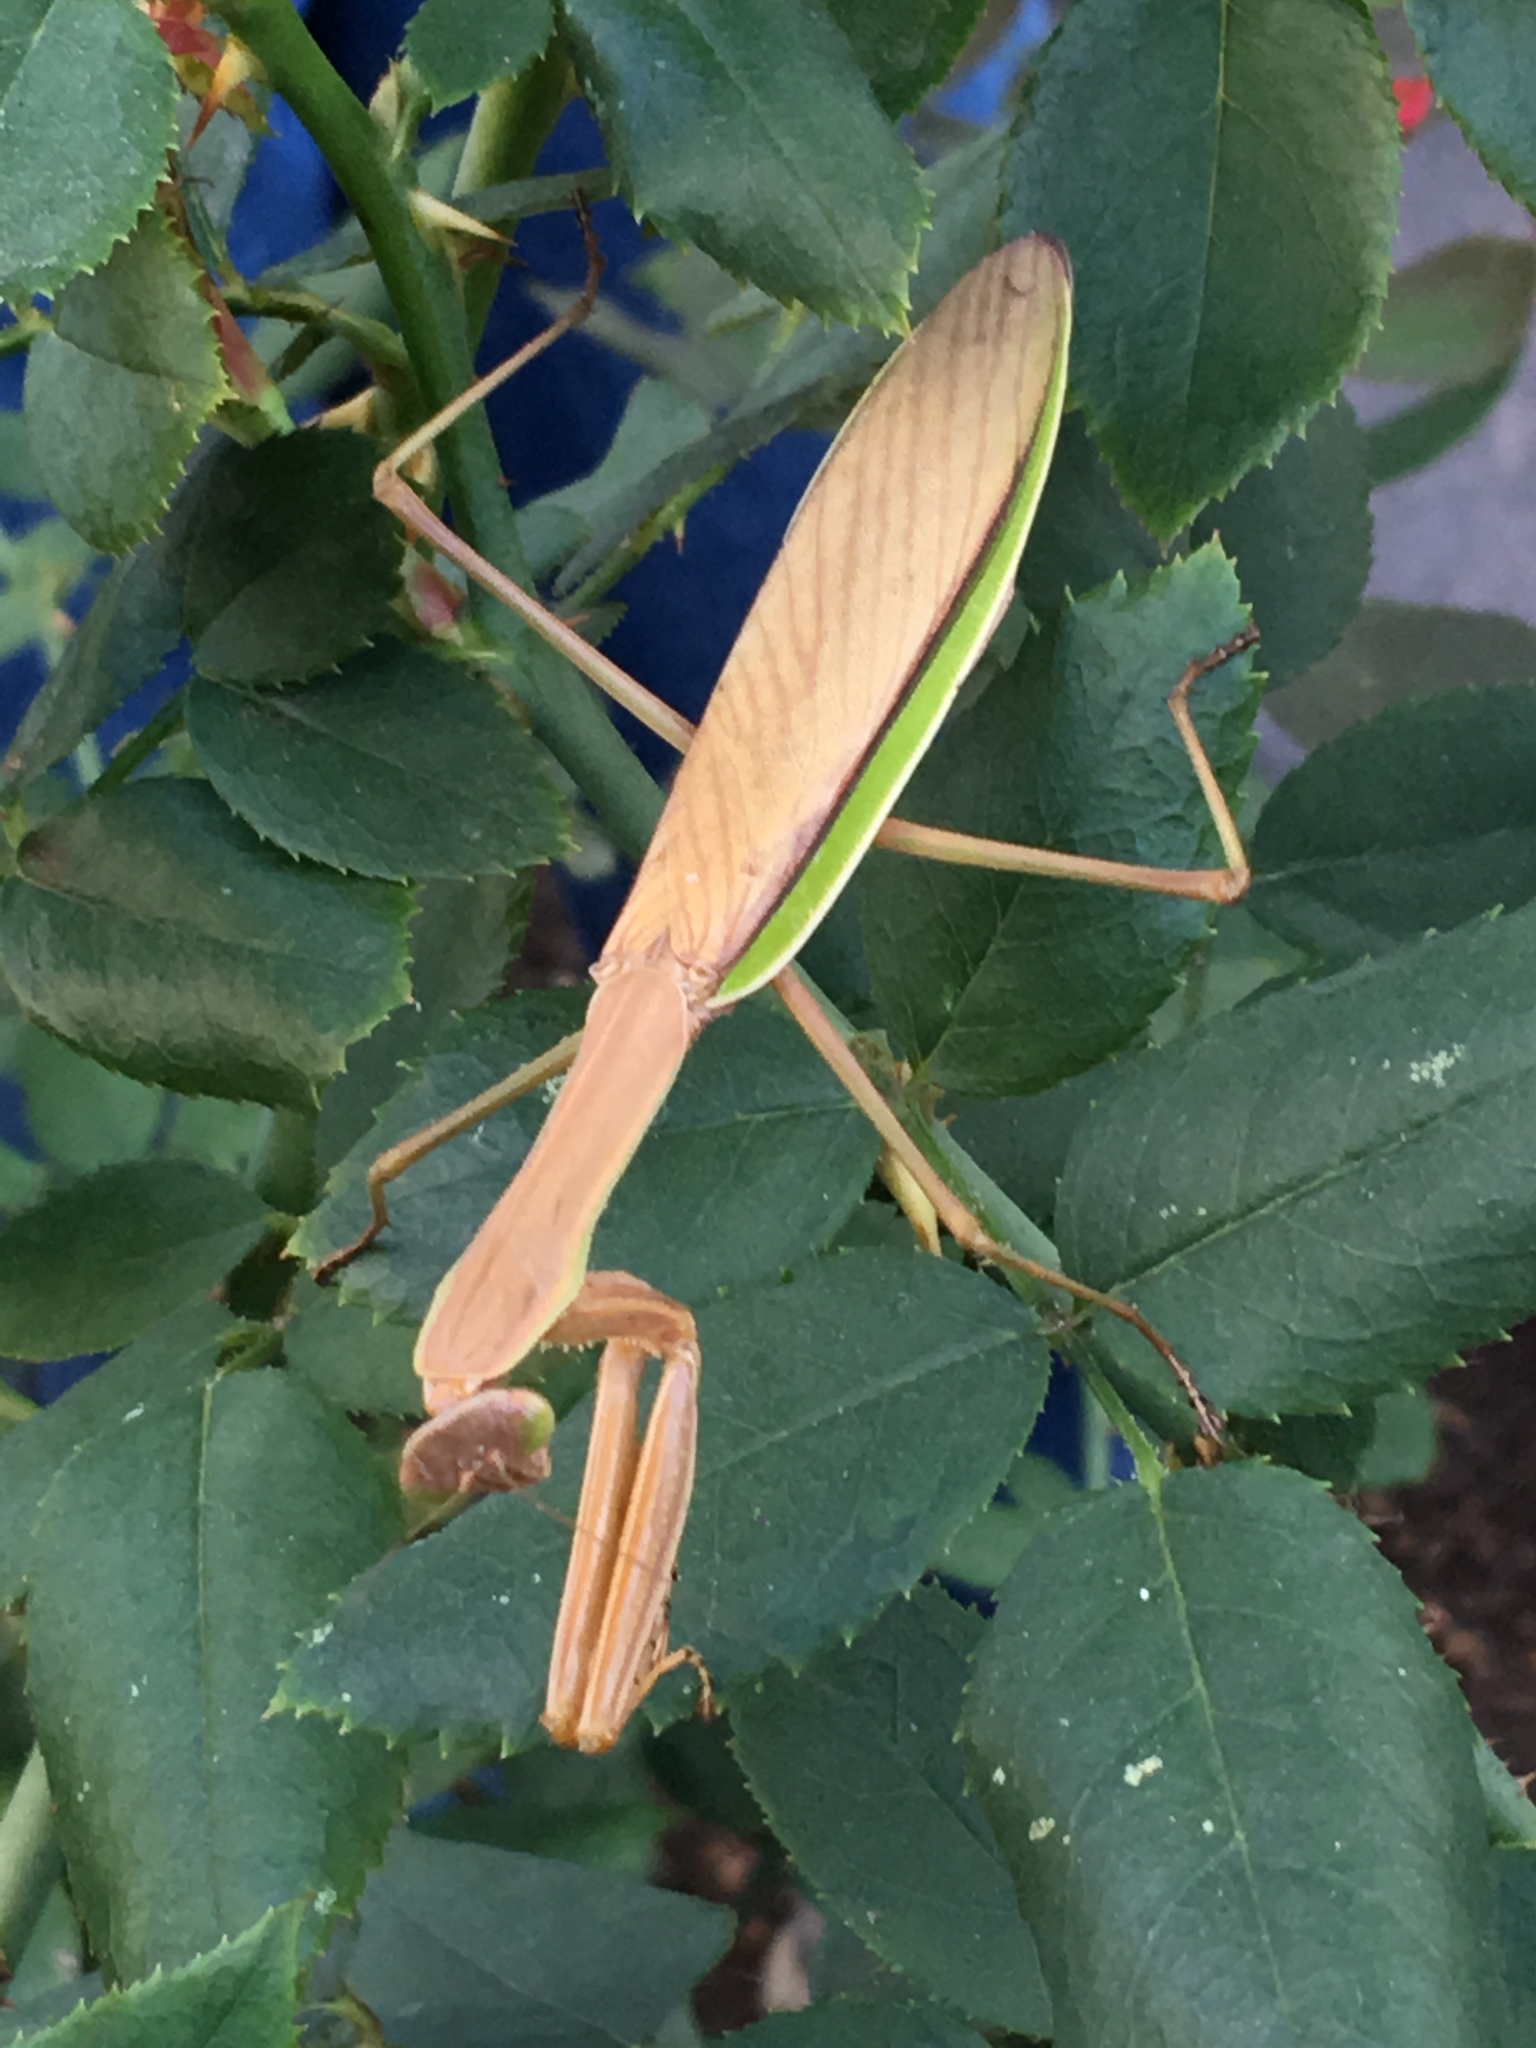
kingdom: Animalia
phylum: Arthropoda
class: Insecta
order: Mantodea
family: Mantidae
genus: Tenodera
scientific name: Tenodera sinensis
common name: Chinese mantis
